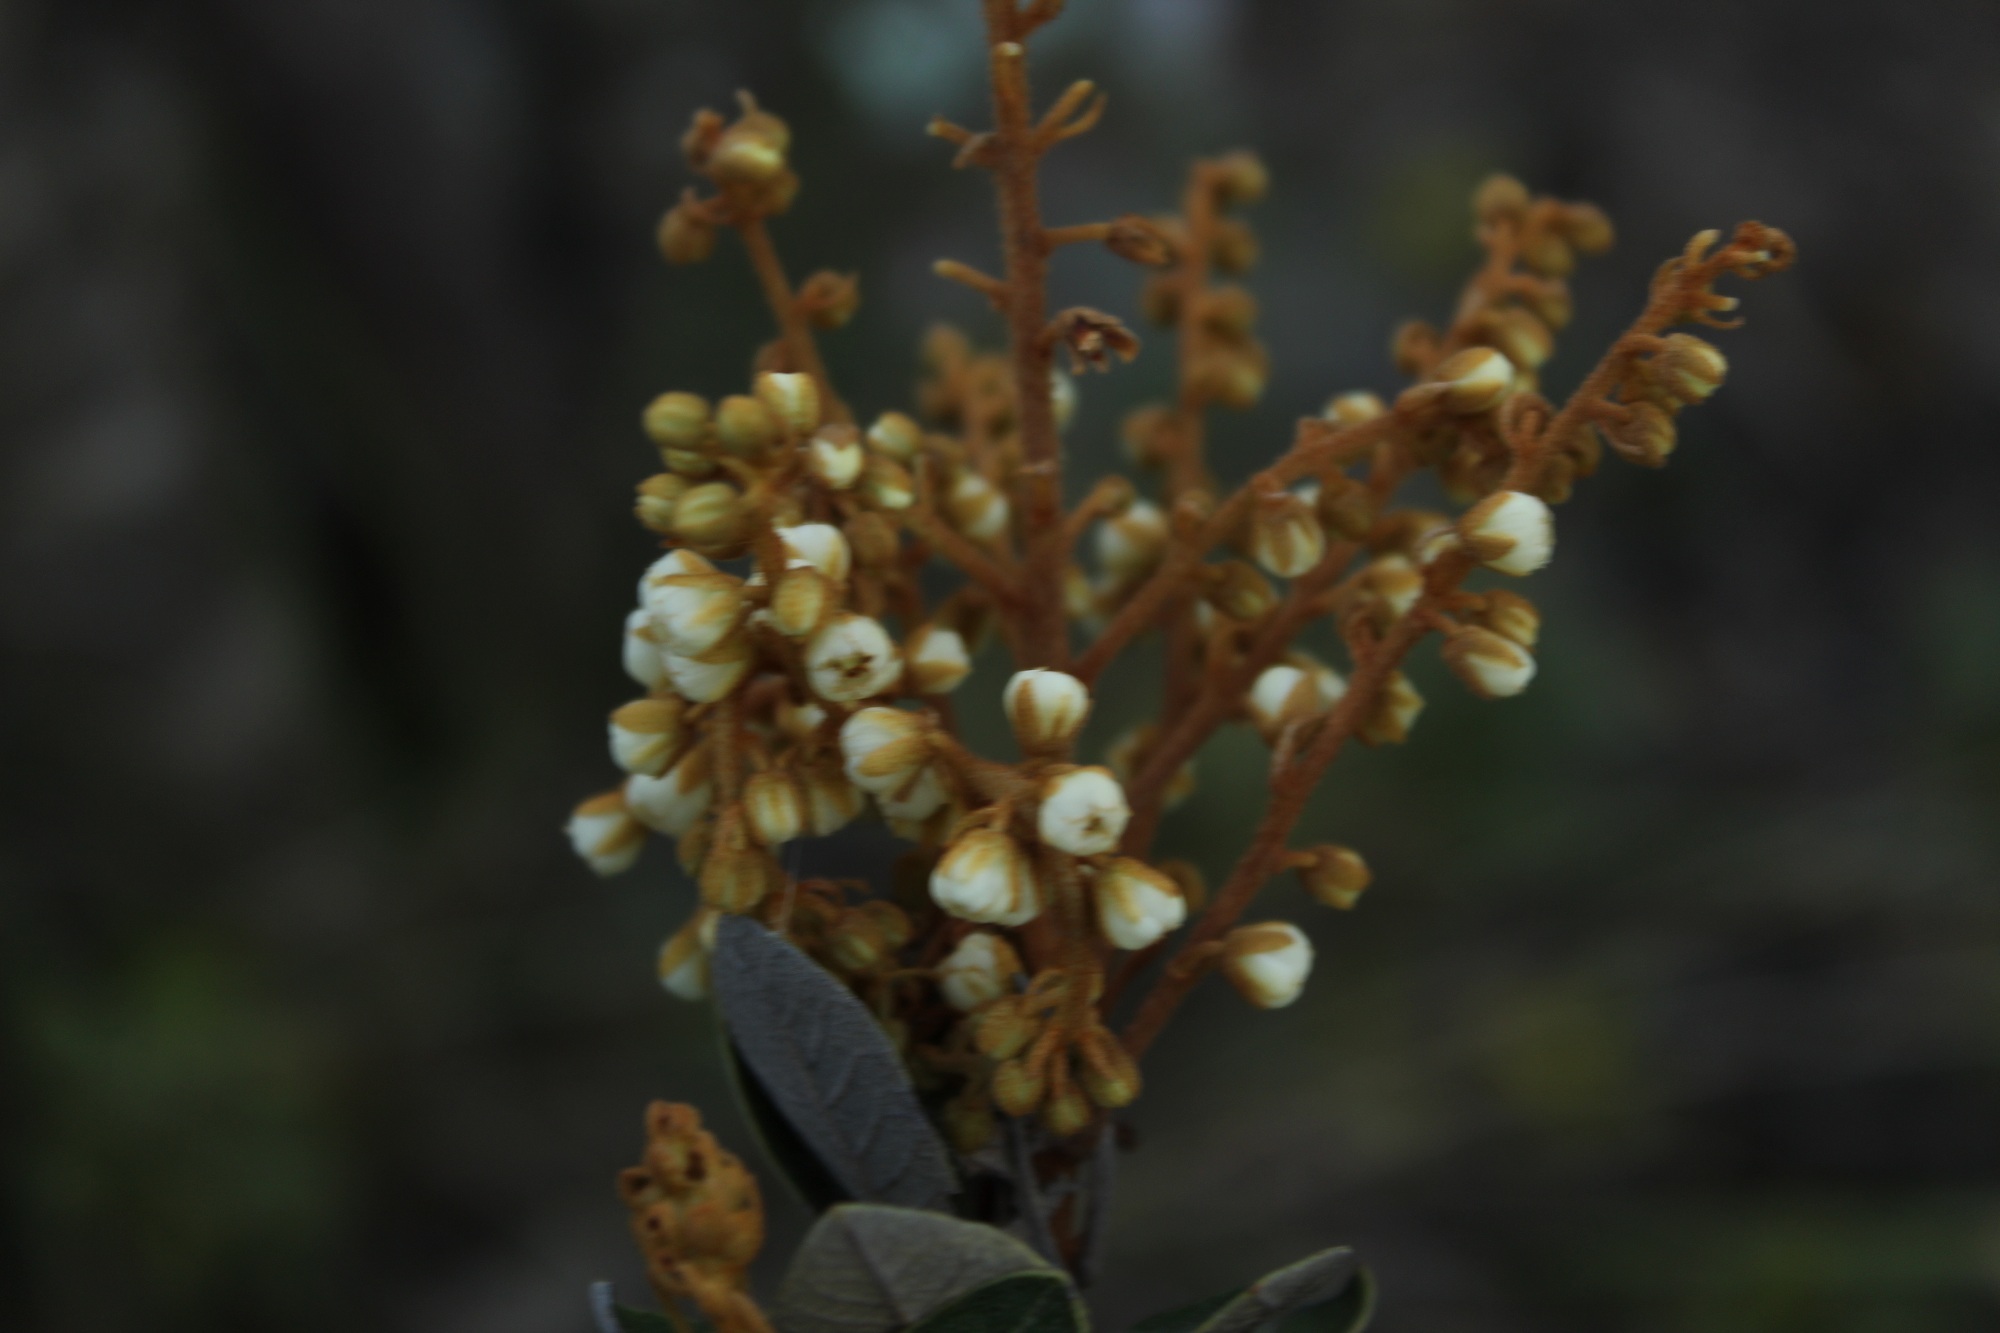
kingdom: Plantae
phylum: Tracheophyta
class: Magnoliopsida
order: Ericales
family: Clethraceae
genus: Clethra
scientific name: Clethra fimbriata
